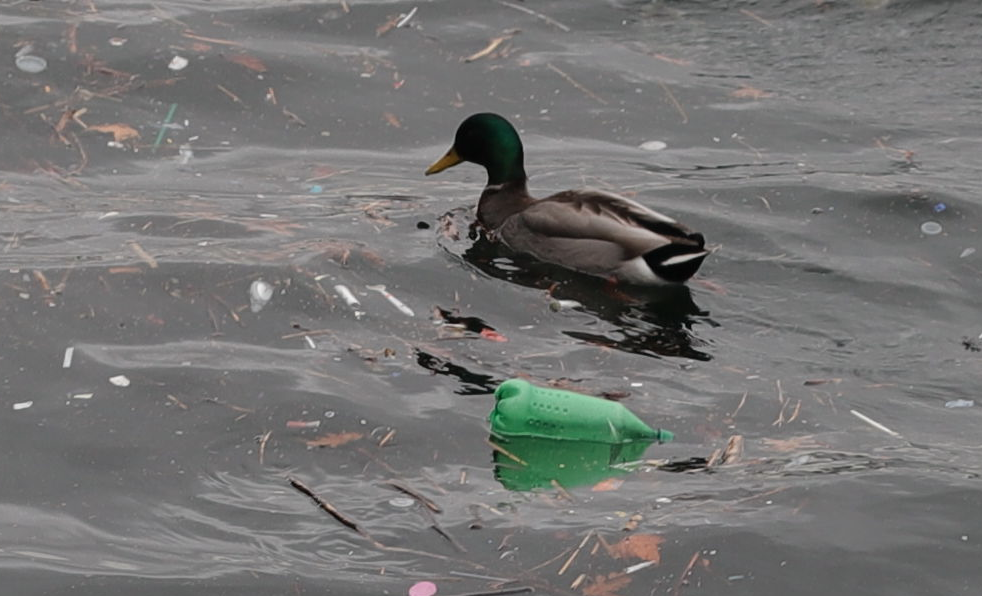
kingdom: Animalia
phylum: Chordata
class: Aves
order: Anseriformes
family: Anatidae
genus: Anas
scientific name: Anas platyrhynchos
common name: Mallard
